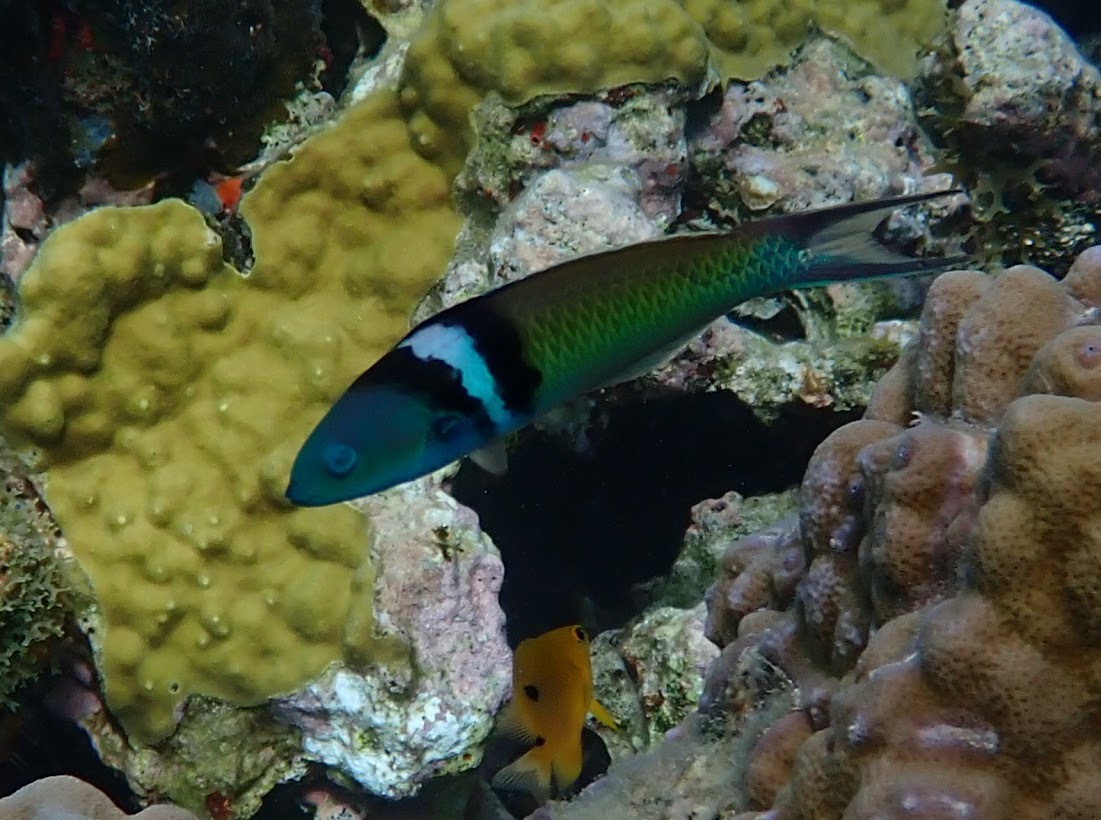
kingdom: Animalia
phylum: Chordata
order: Perciformes
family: Labridae
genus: Thalassoma
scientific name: Thalassoma bifasciatum
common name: Bluehead wrasse
